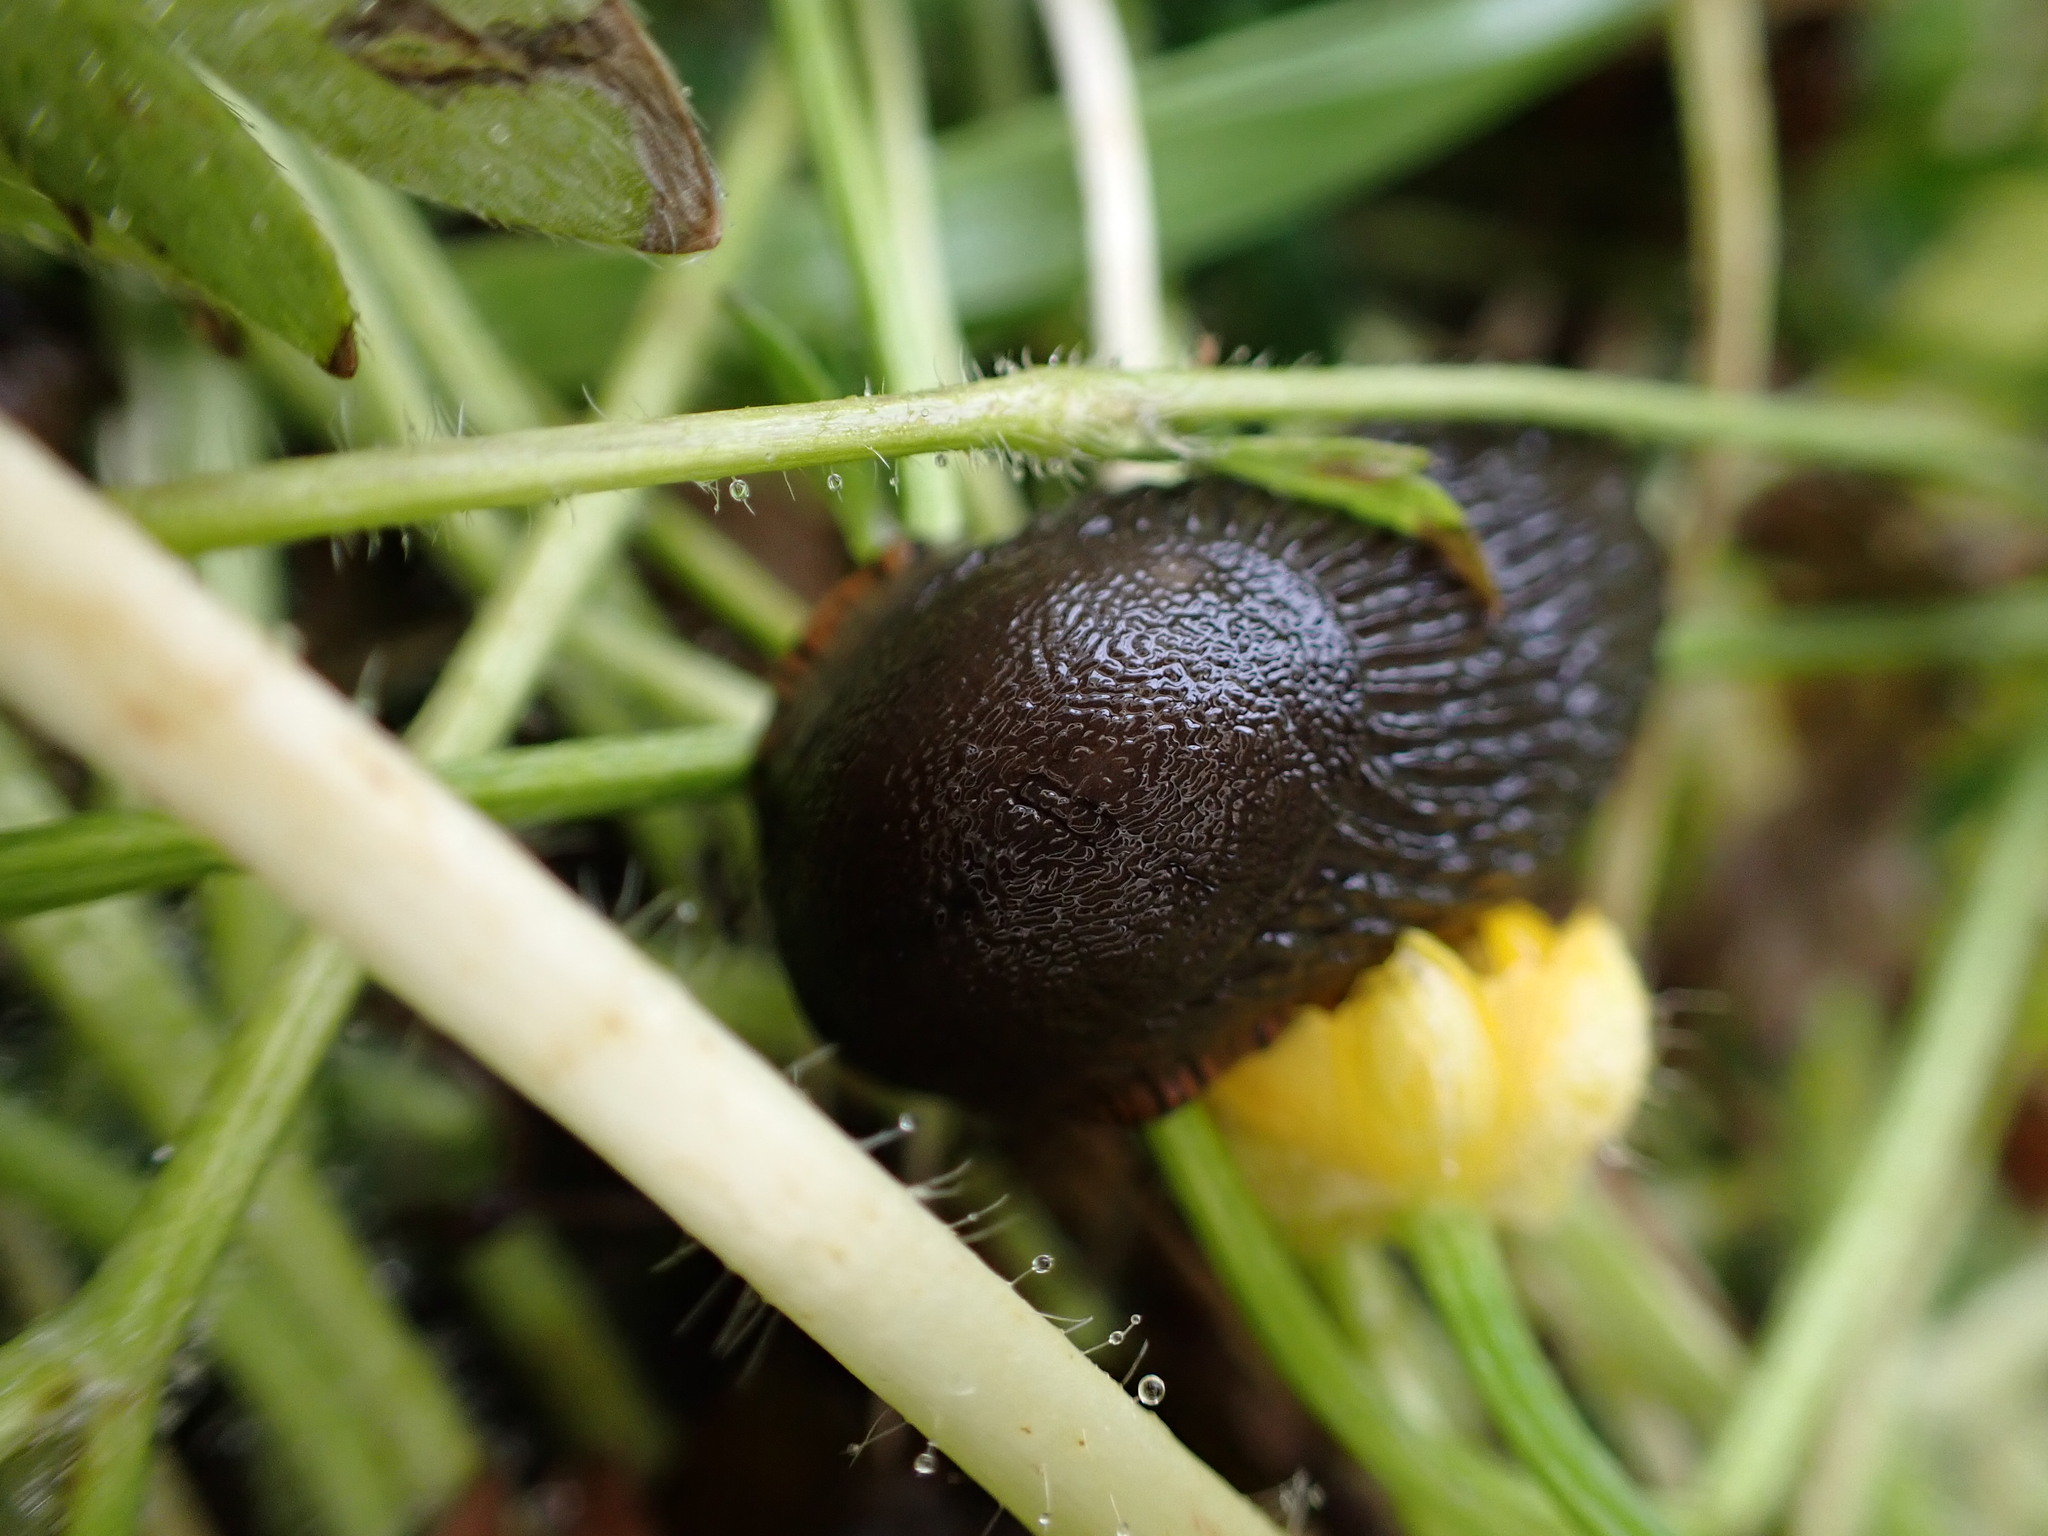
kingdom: Animalia
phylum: Mollusca
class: Gastropoda
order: Stylommatophora
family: Arionidae
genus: Arion
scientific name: Arion
